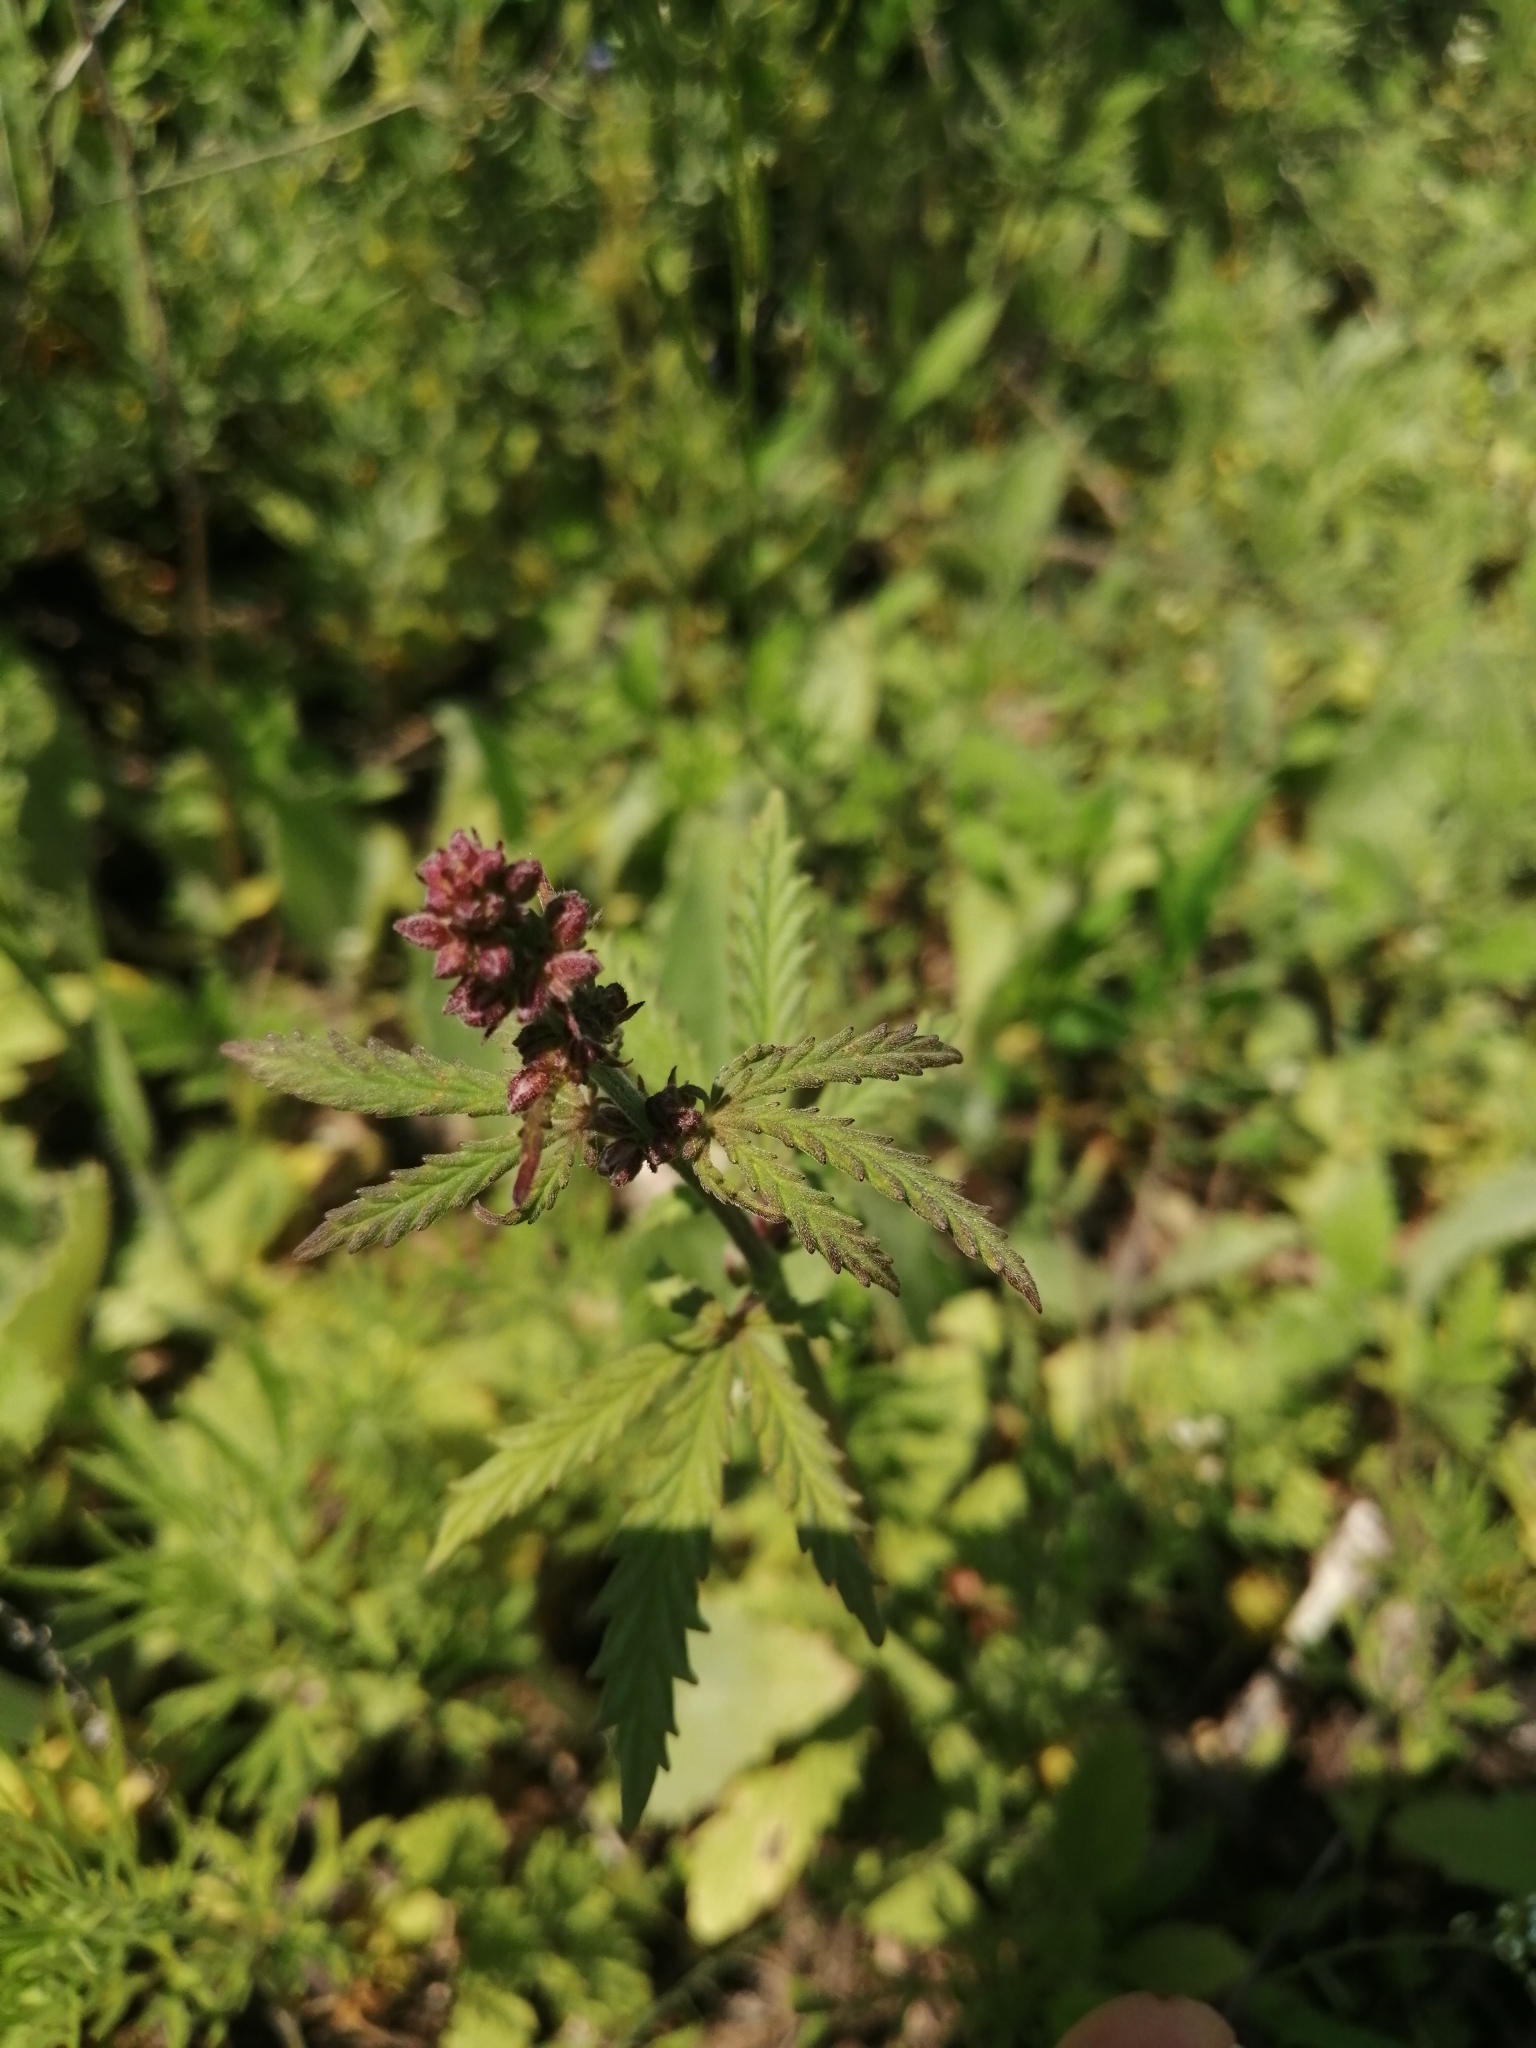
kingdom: Plantae
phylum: Tracheophyta
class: Magnoliopsida
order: Rosales
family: Cannabaceae
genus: Cannabis
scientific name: Cannabis sativa
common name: Hemp
